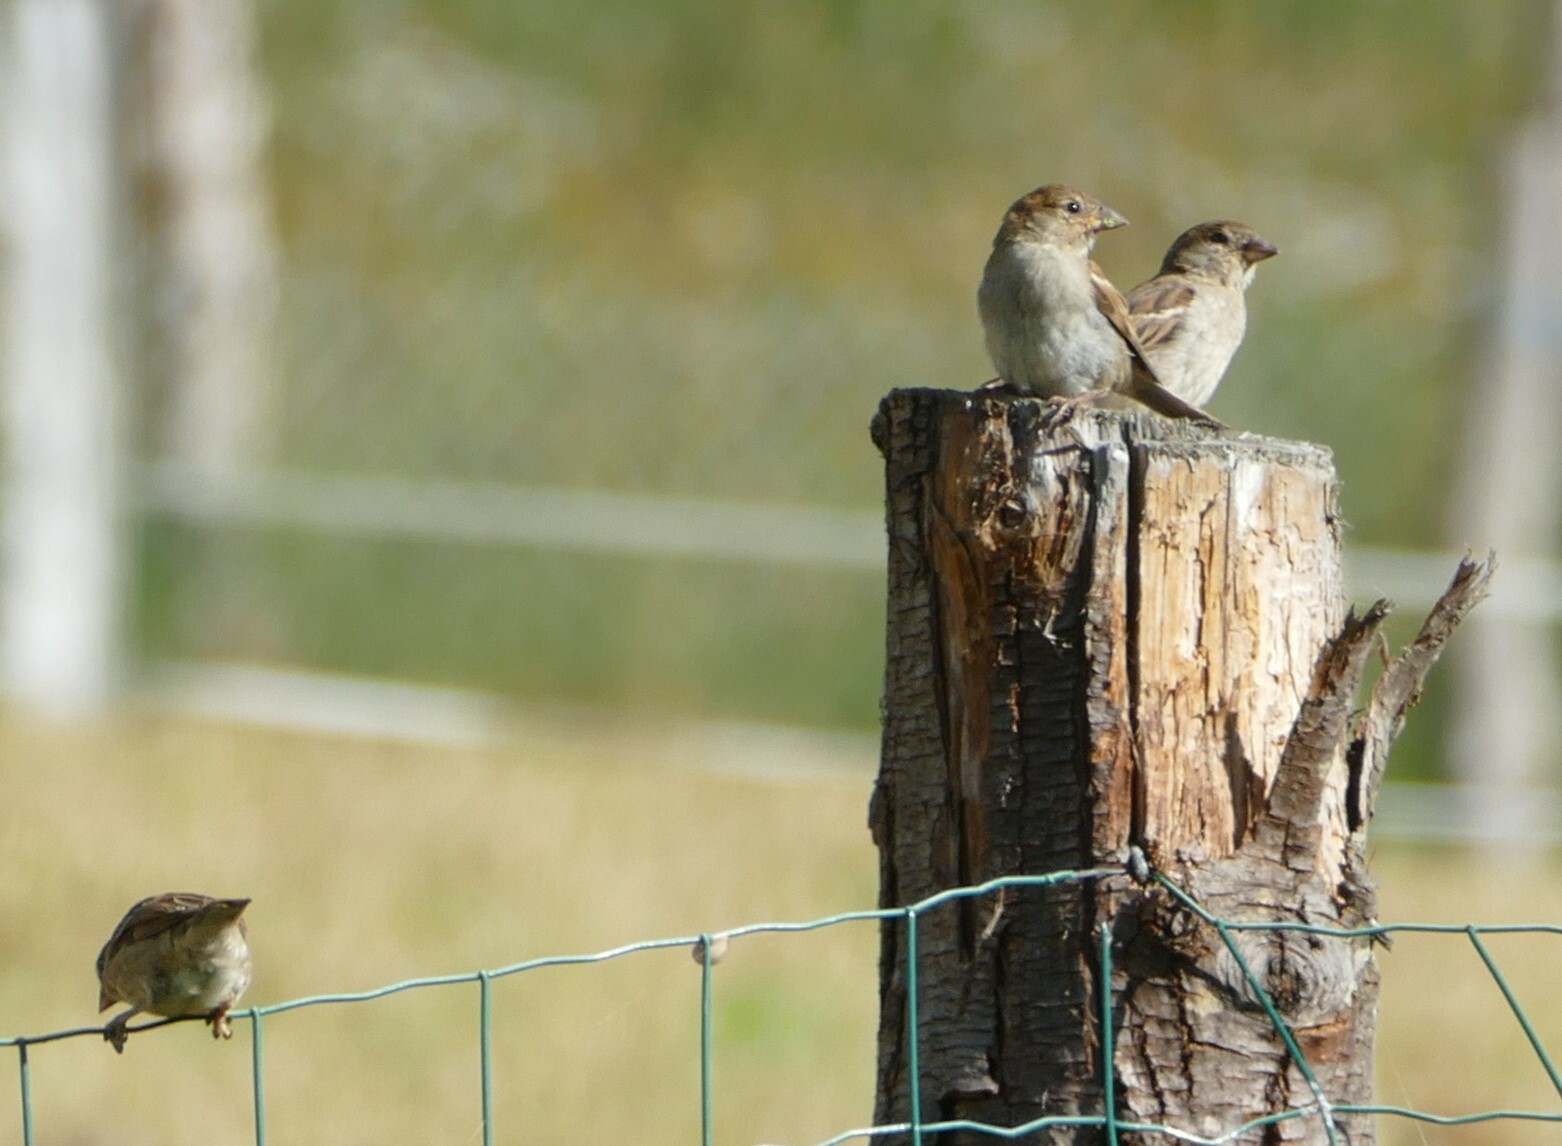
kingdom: Animalia
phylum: Chordata
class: Aves
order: Passeriformes
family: Passeridae
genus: Passer
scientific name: Passer domesticus
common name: House sparrow
